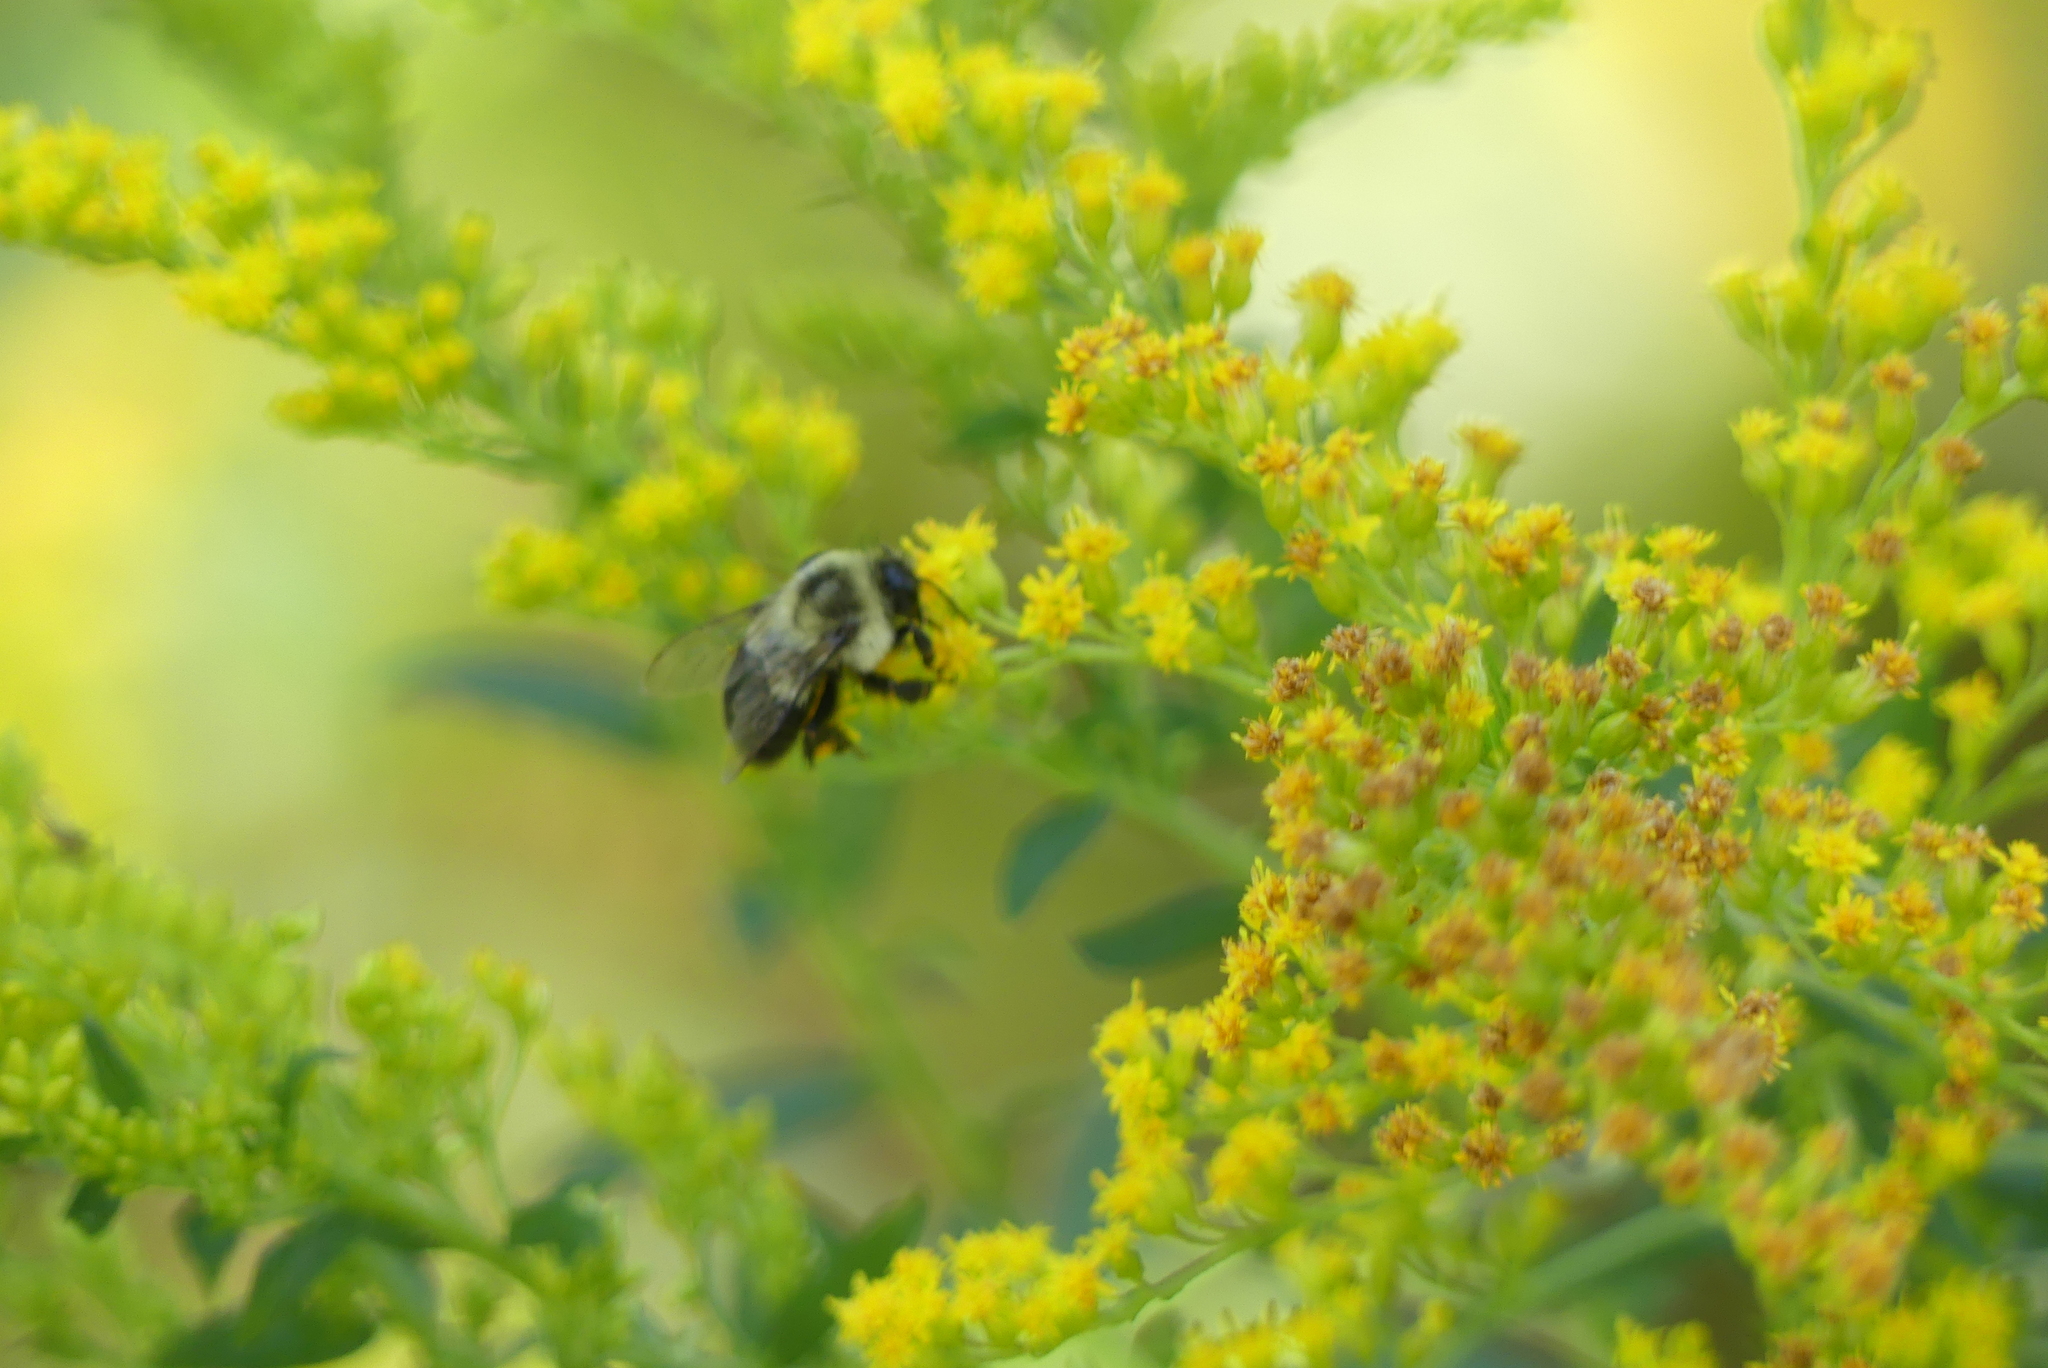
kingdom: Animalia
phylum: Arthropoda
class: Insecta
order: Hymenoptera
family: Apidae
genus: Bombus
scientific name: Bombus impatiens
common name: Common eastern bumble bee
